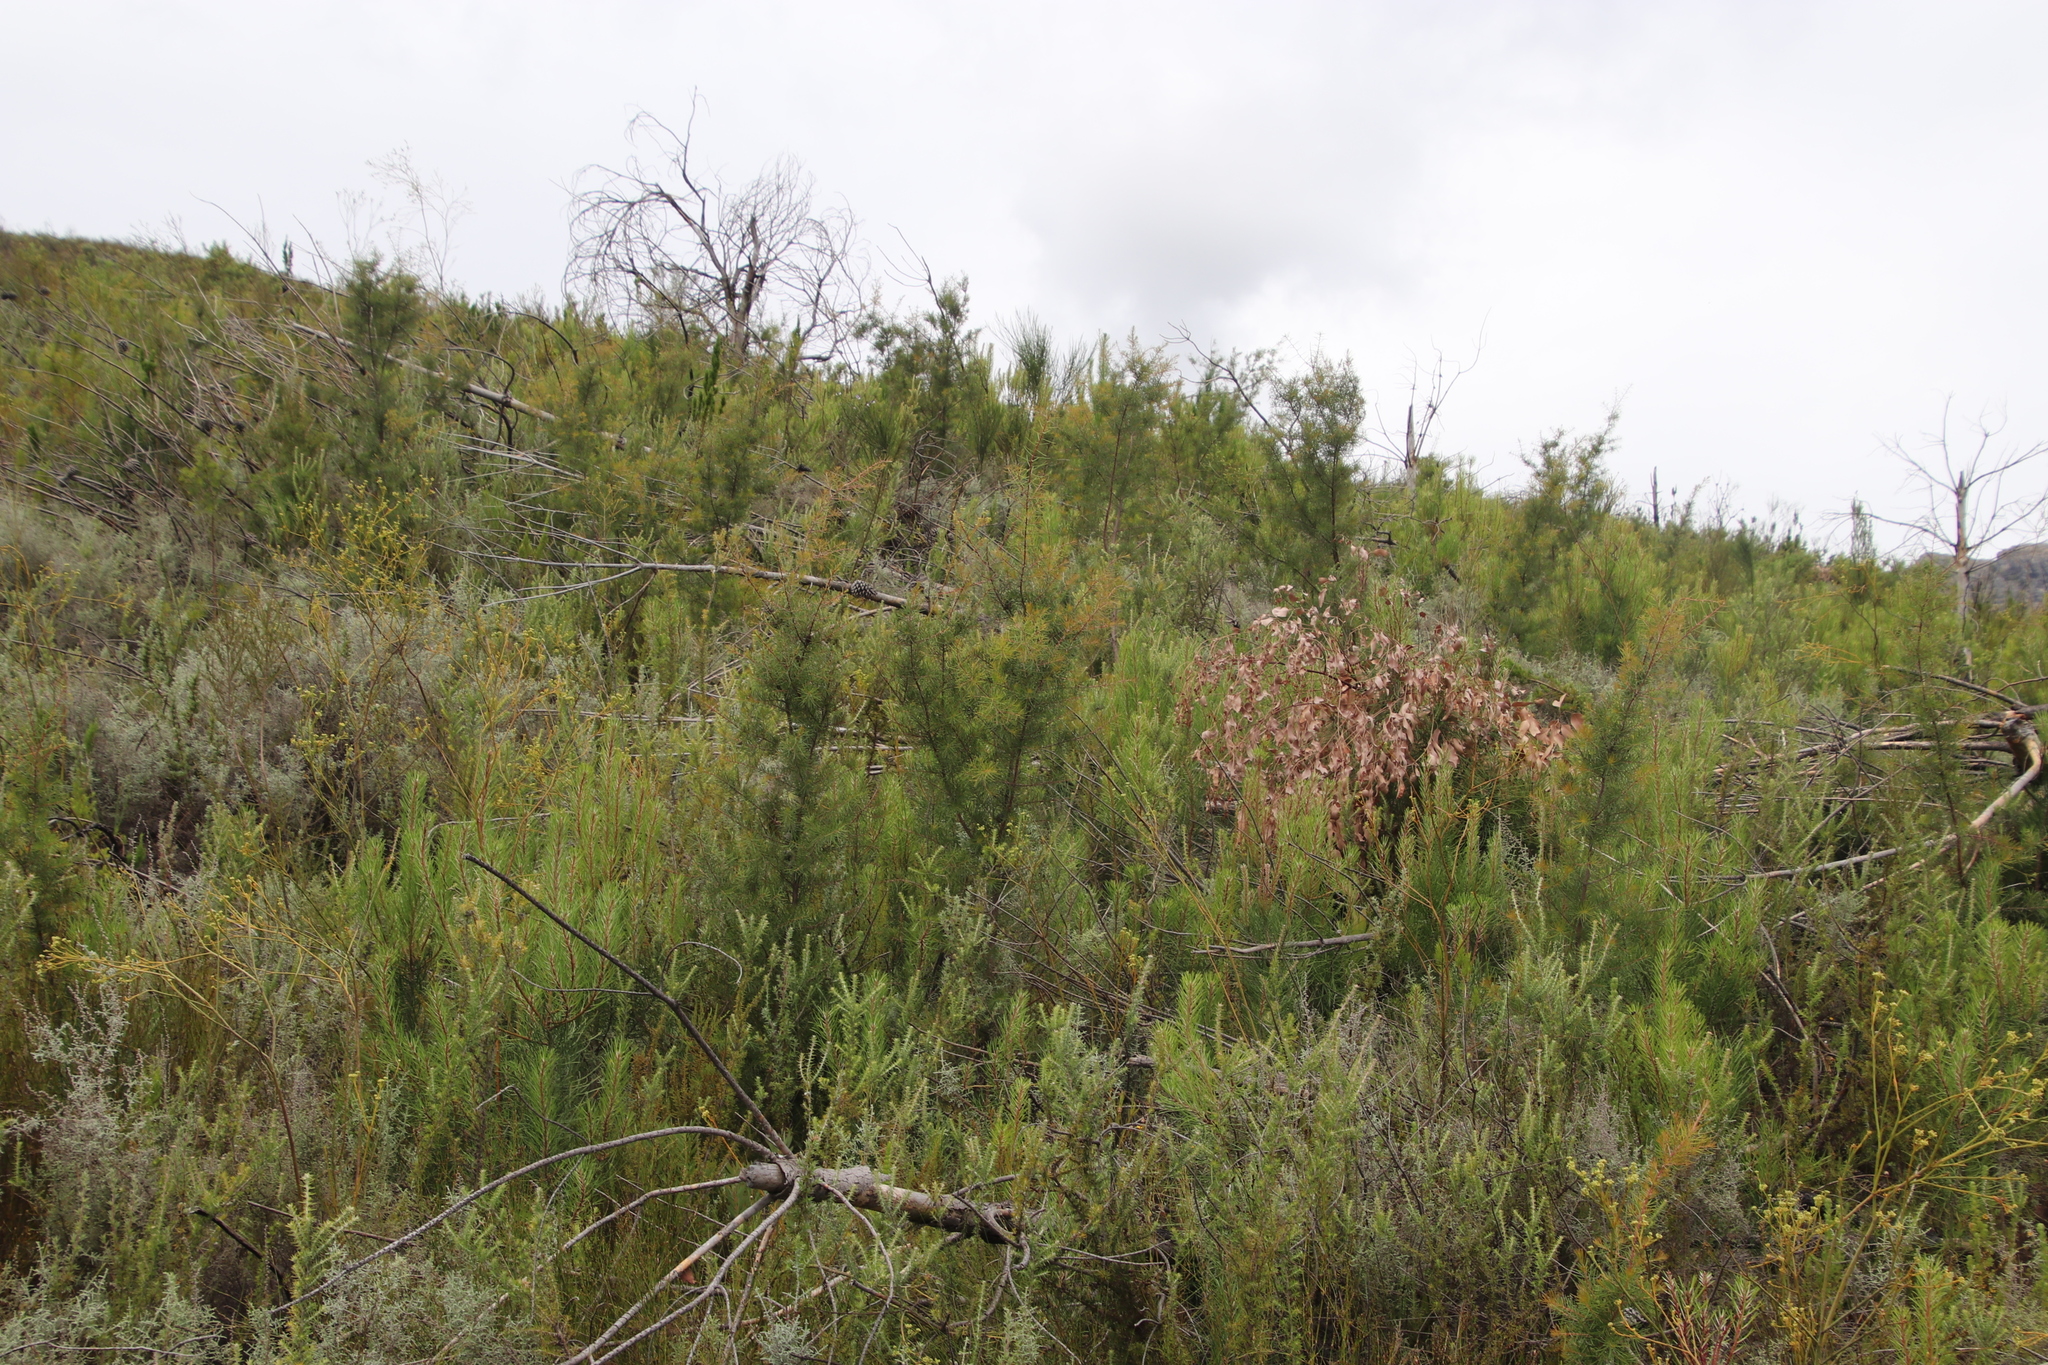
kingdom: Plantae
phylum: Tracheophyta
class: Magnoliopsida
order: Proteales
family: Proteaceae
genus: Hakea
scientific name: Hakea sericea
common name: Needle bush
